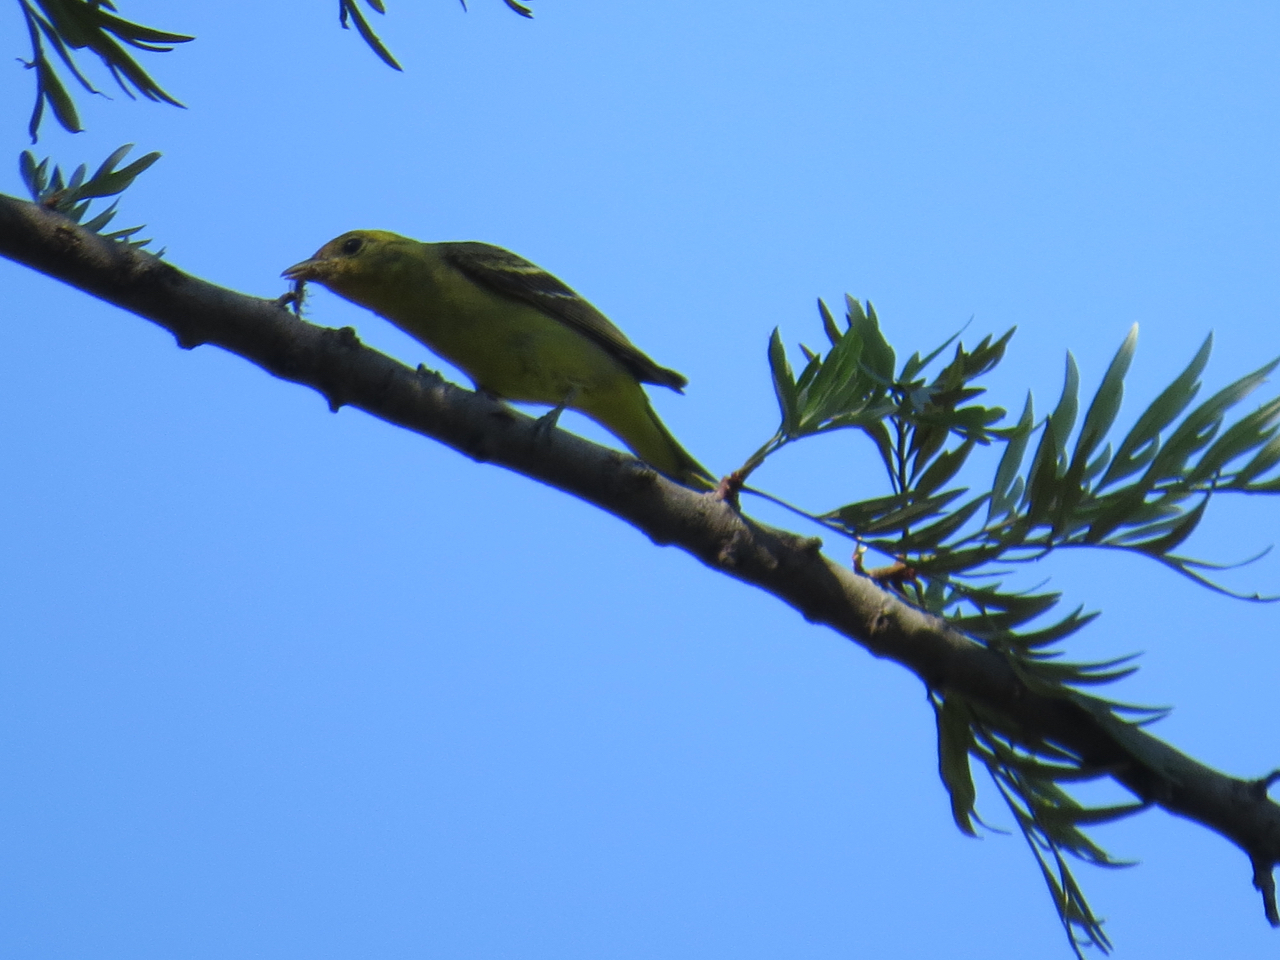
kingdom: Animalia
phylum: Chordata
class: Aves
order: Passeriformes
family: Cardinalidae
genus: Piranga
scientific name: Piranga ludoviciana
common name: Western tanager
